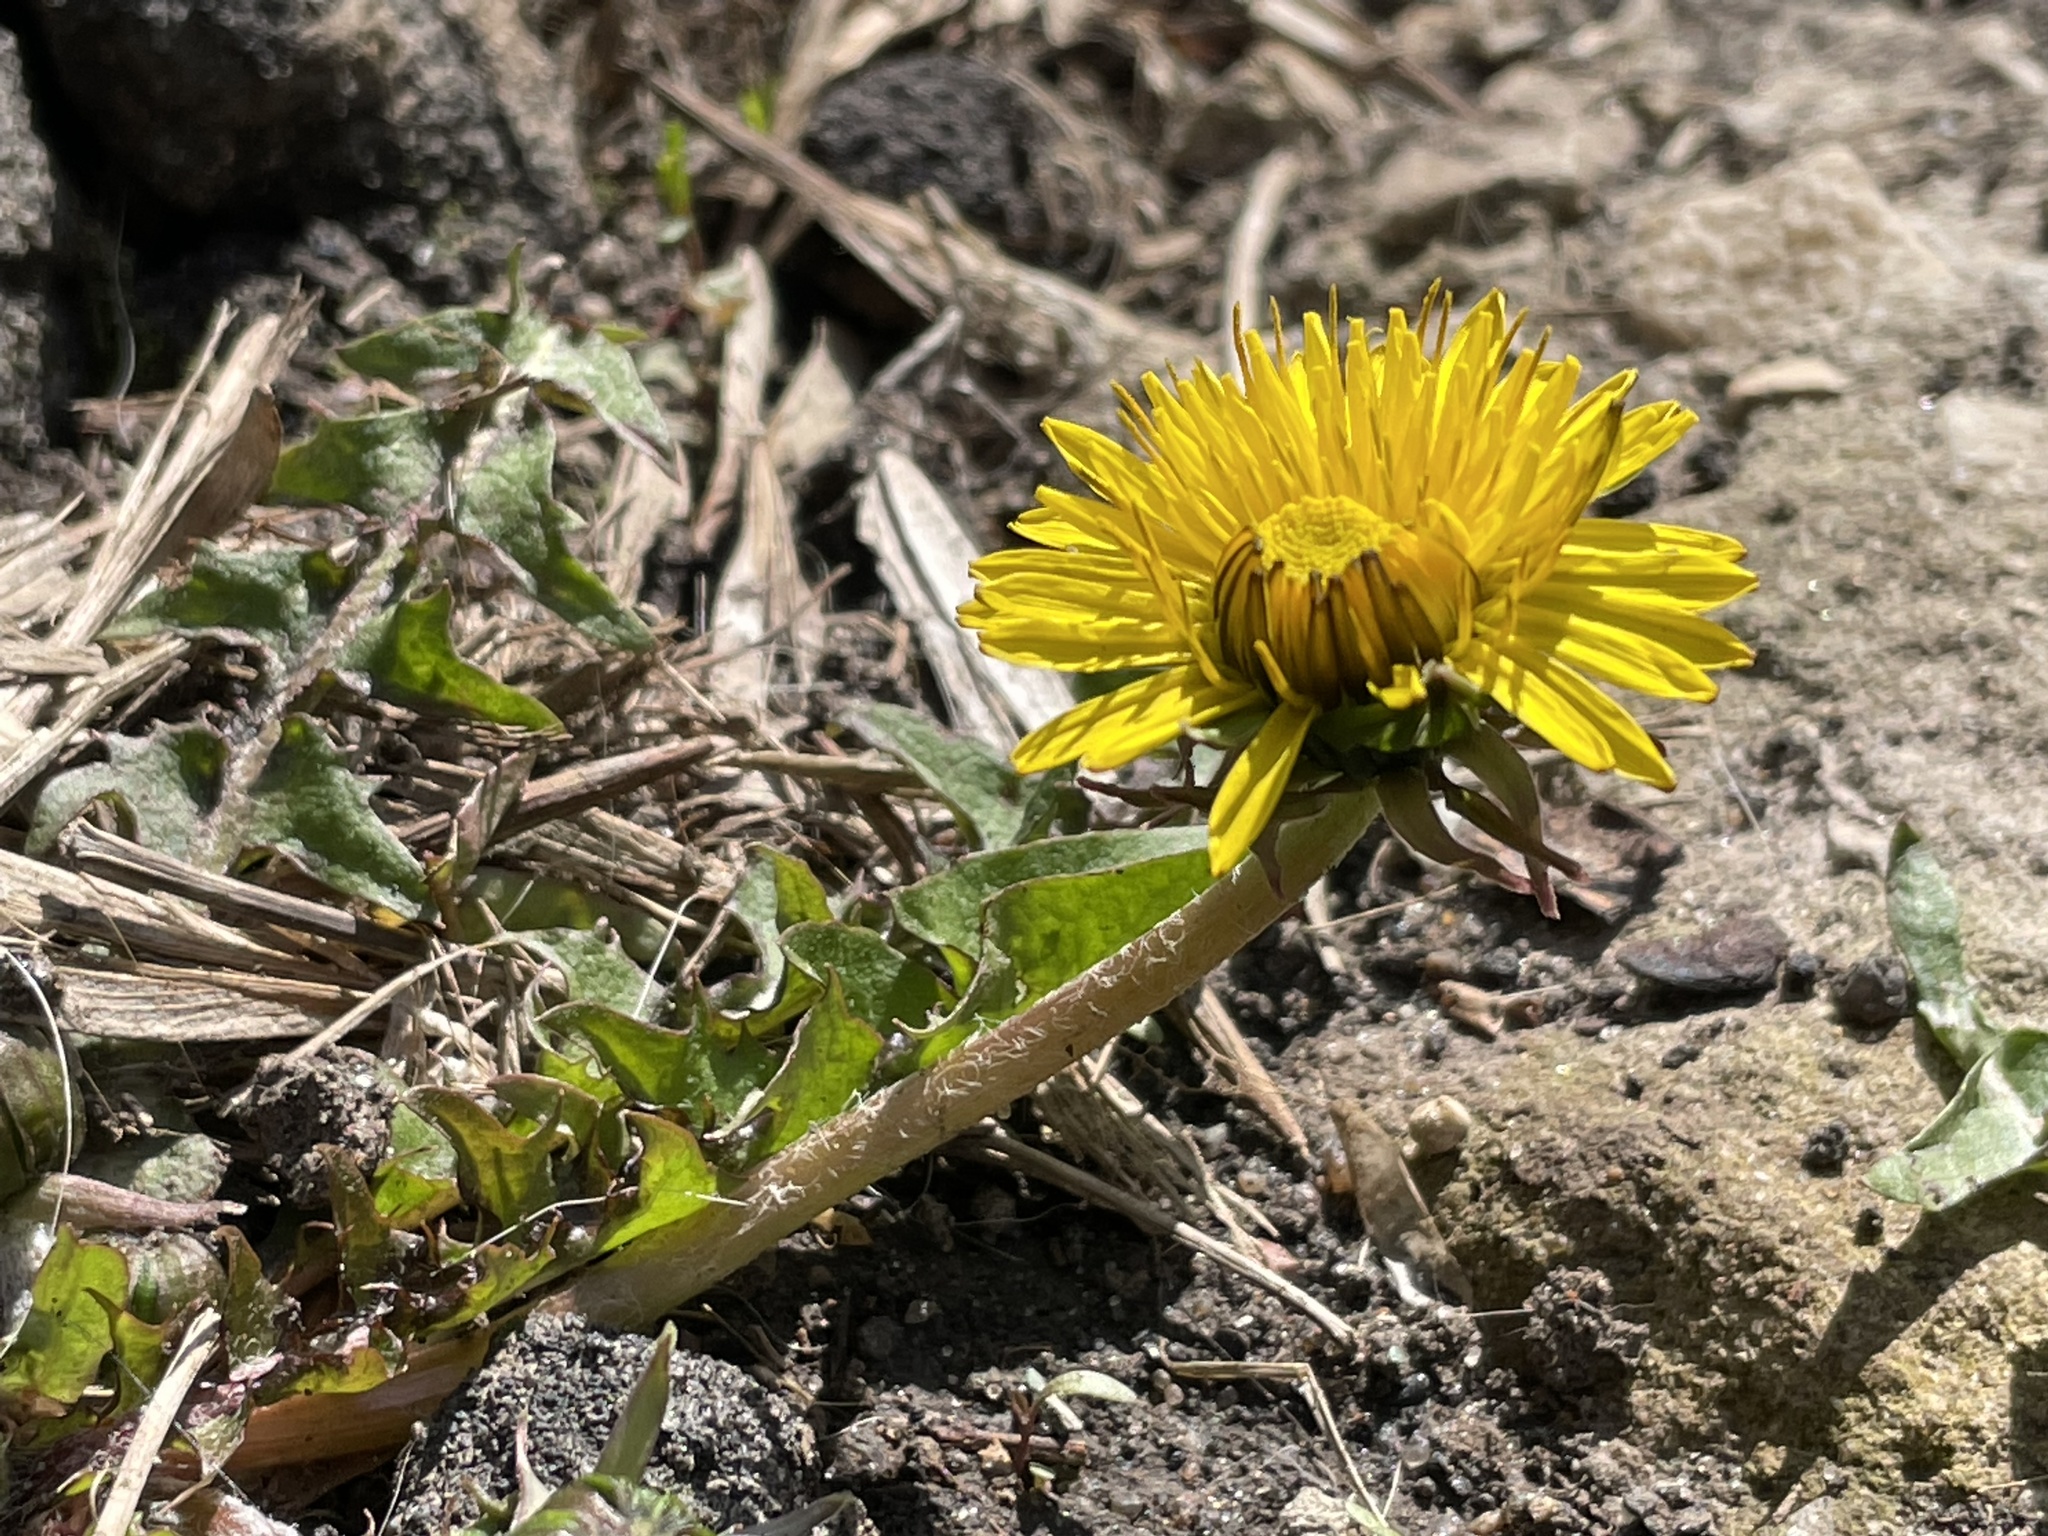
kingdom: Plantae
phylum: Tracheophyta
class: Magnoliopsida
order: Asterales
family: Asteraceae
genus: Taraxacum
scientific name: Taraxacum officinale
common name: Common dandelion
